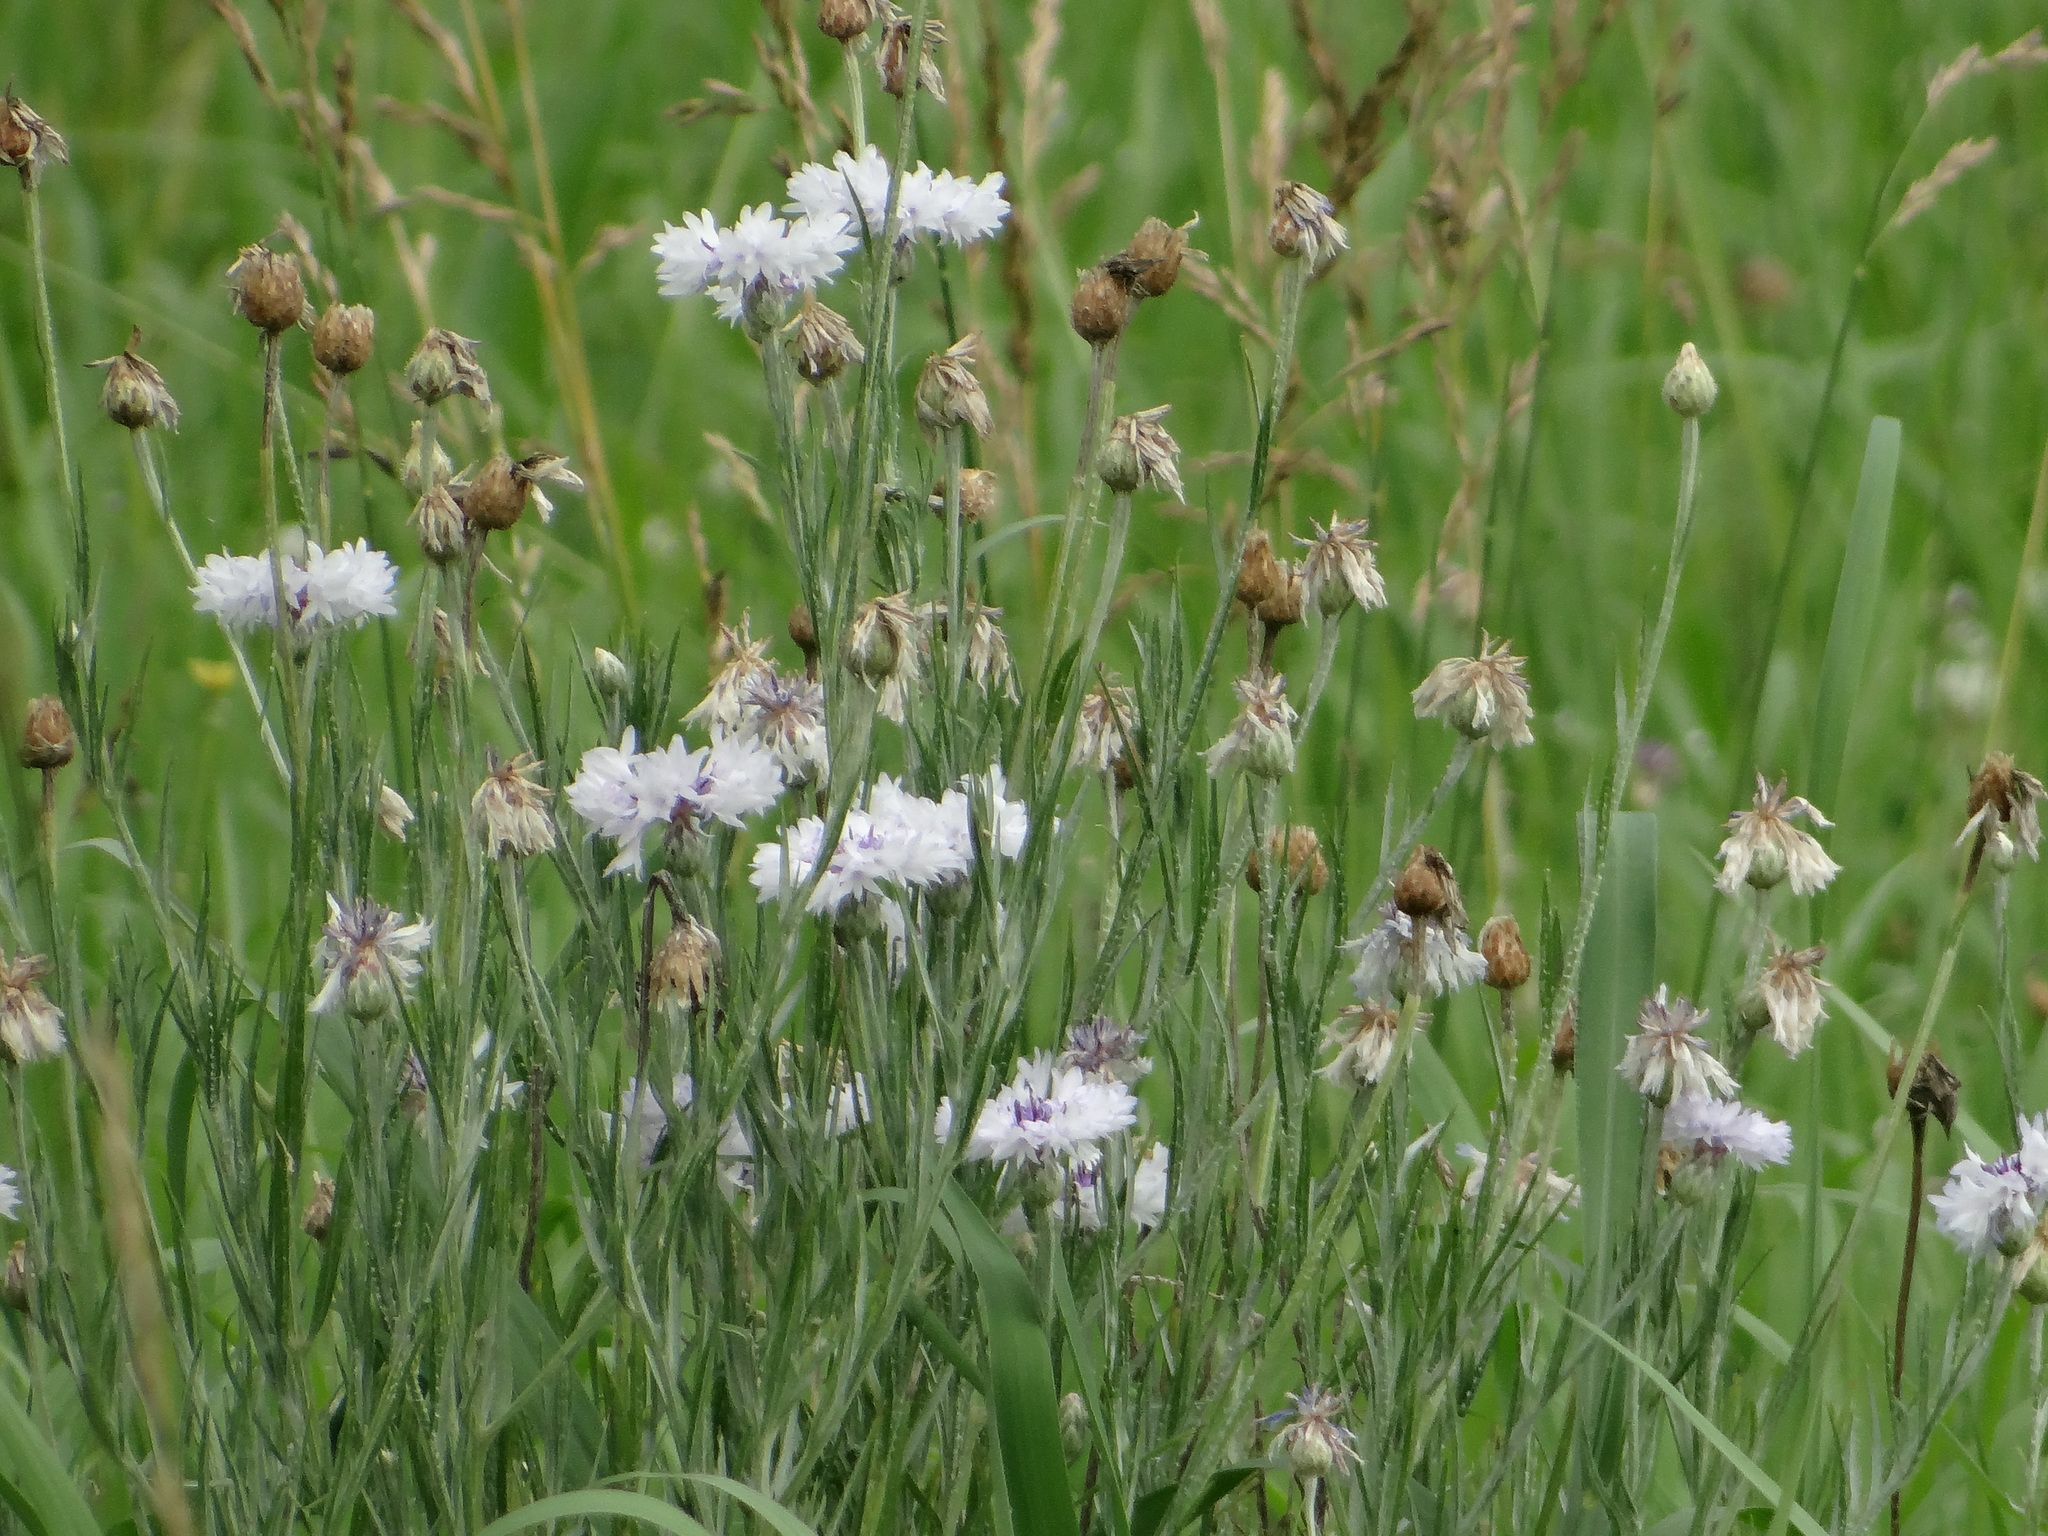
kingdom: Plantae
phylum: Tracheophyta
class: Magnoliopsida
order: Asterales
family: Asteraceae
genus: Centaurea
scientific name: Centaurea cyanus
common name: Cornflower
